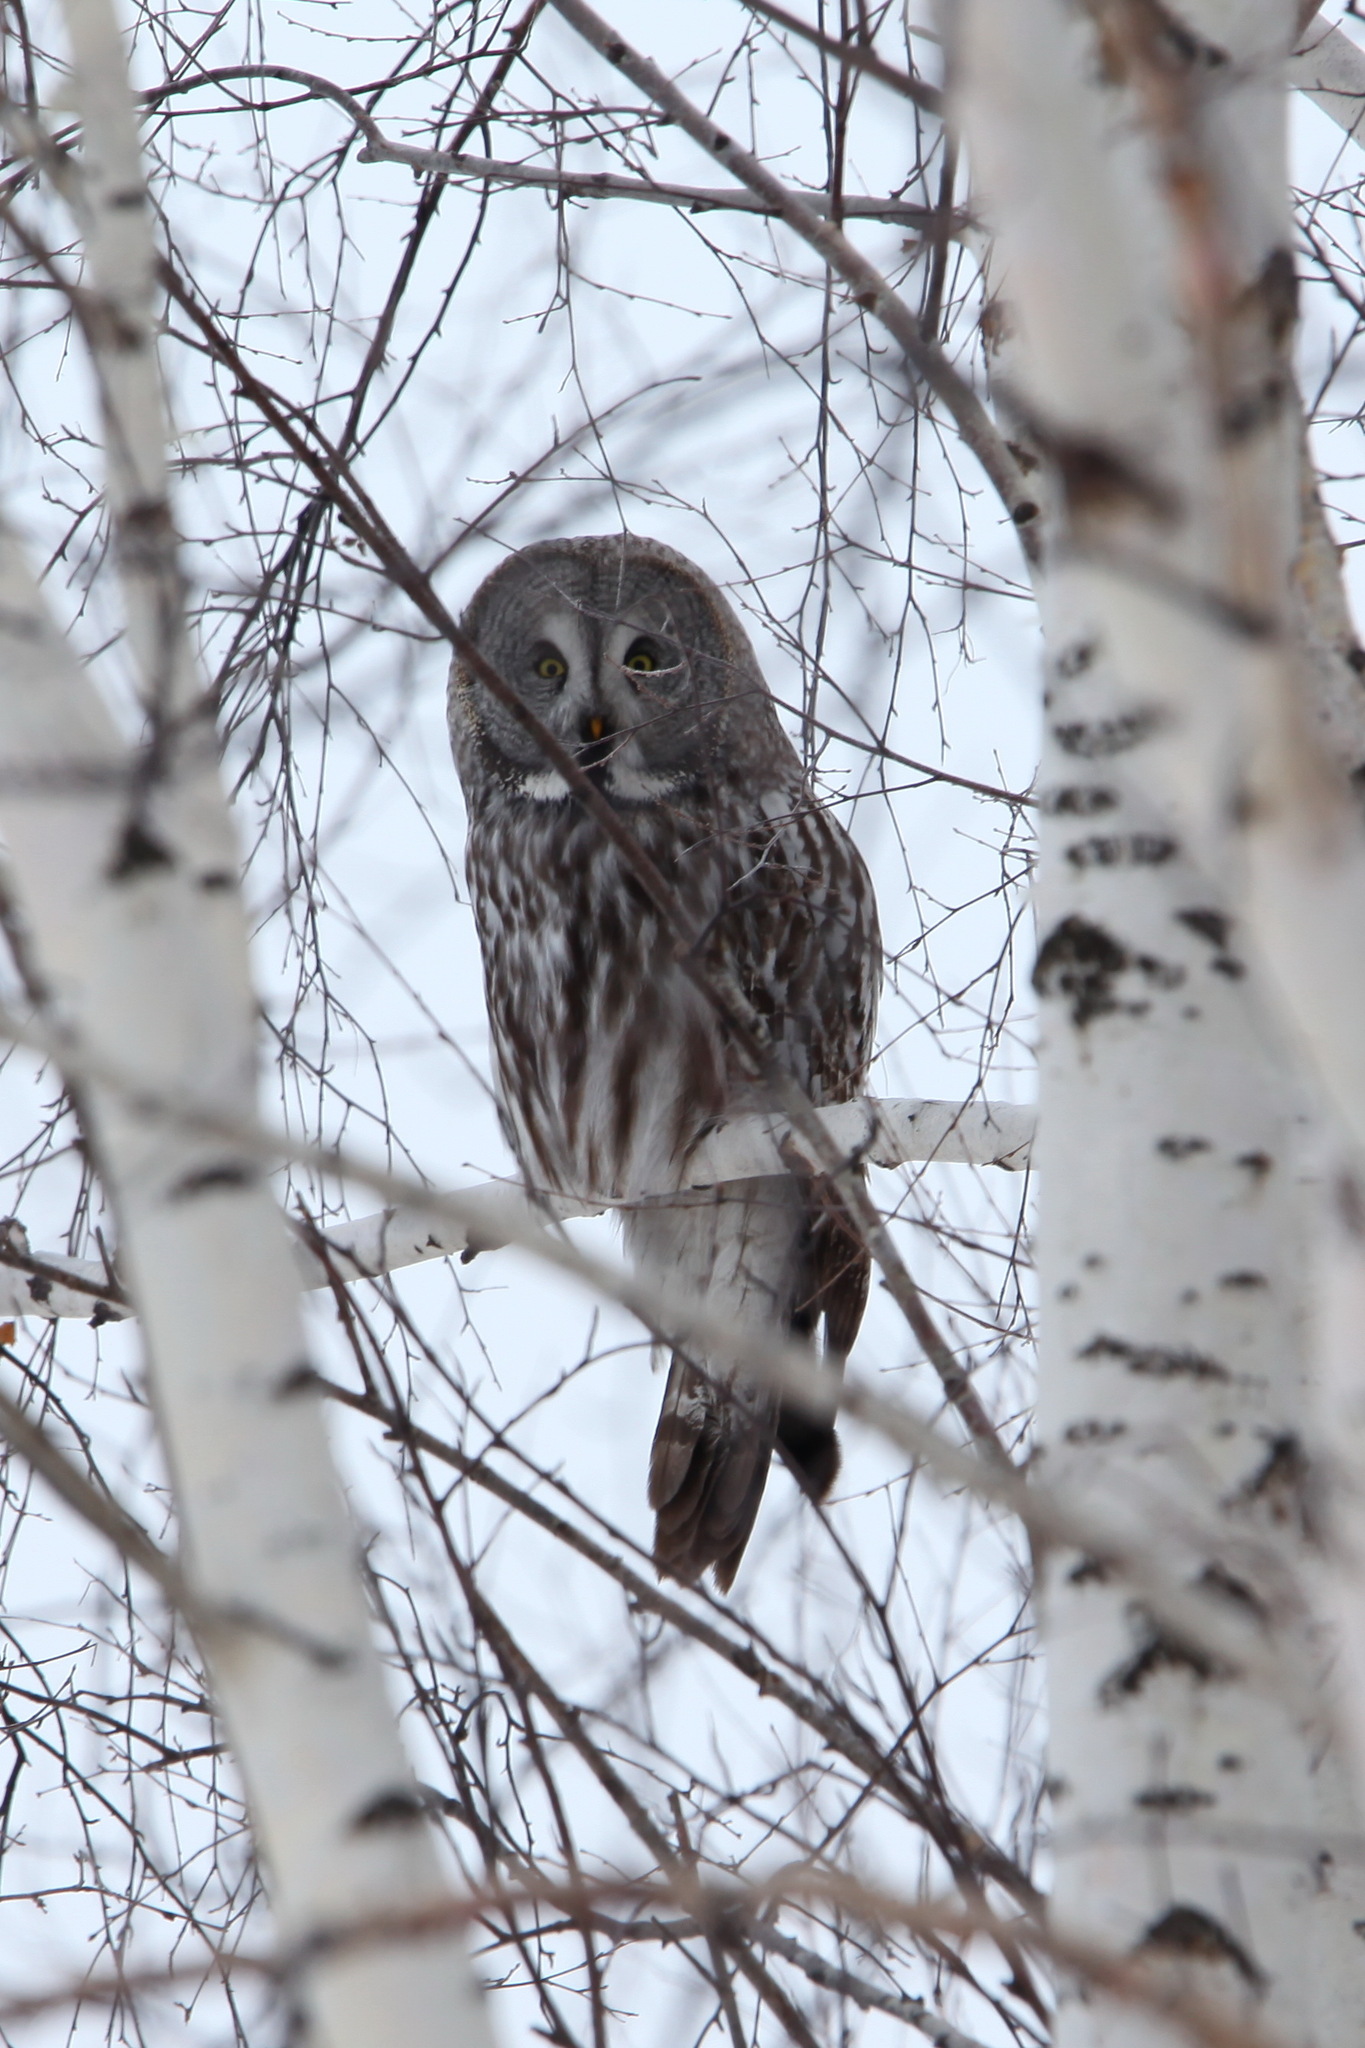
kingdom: Animalia
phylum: Chordata
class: Aves
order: Strigiformes
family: Strigidae
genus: Strix
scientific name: Strix nebulosa
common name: Great grey owl
